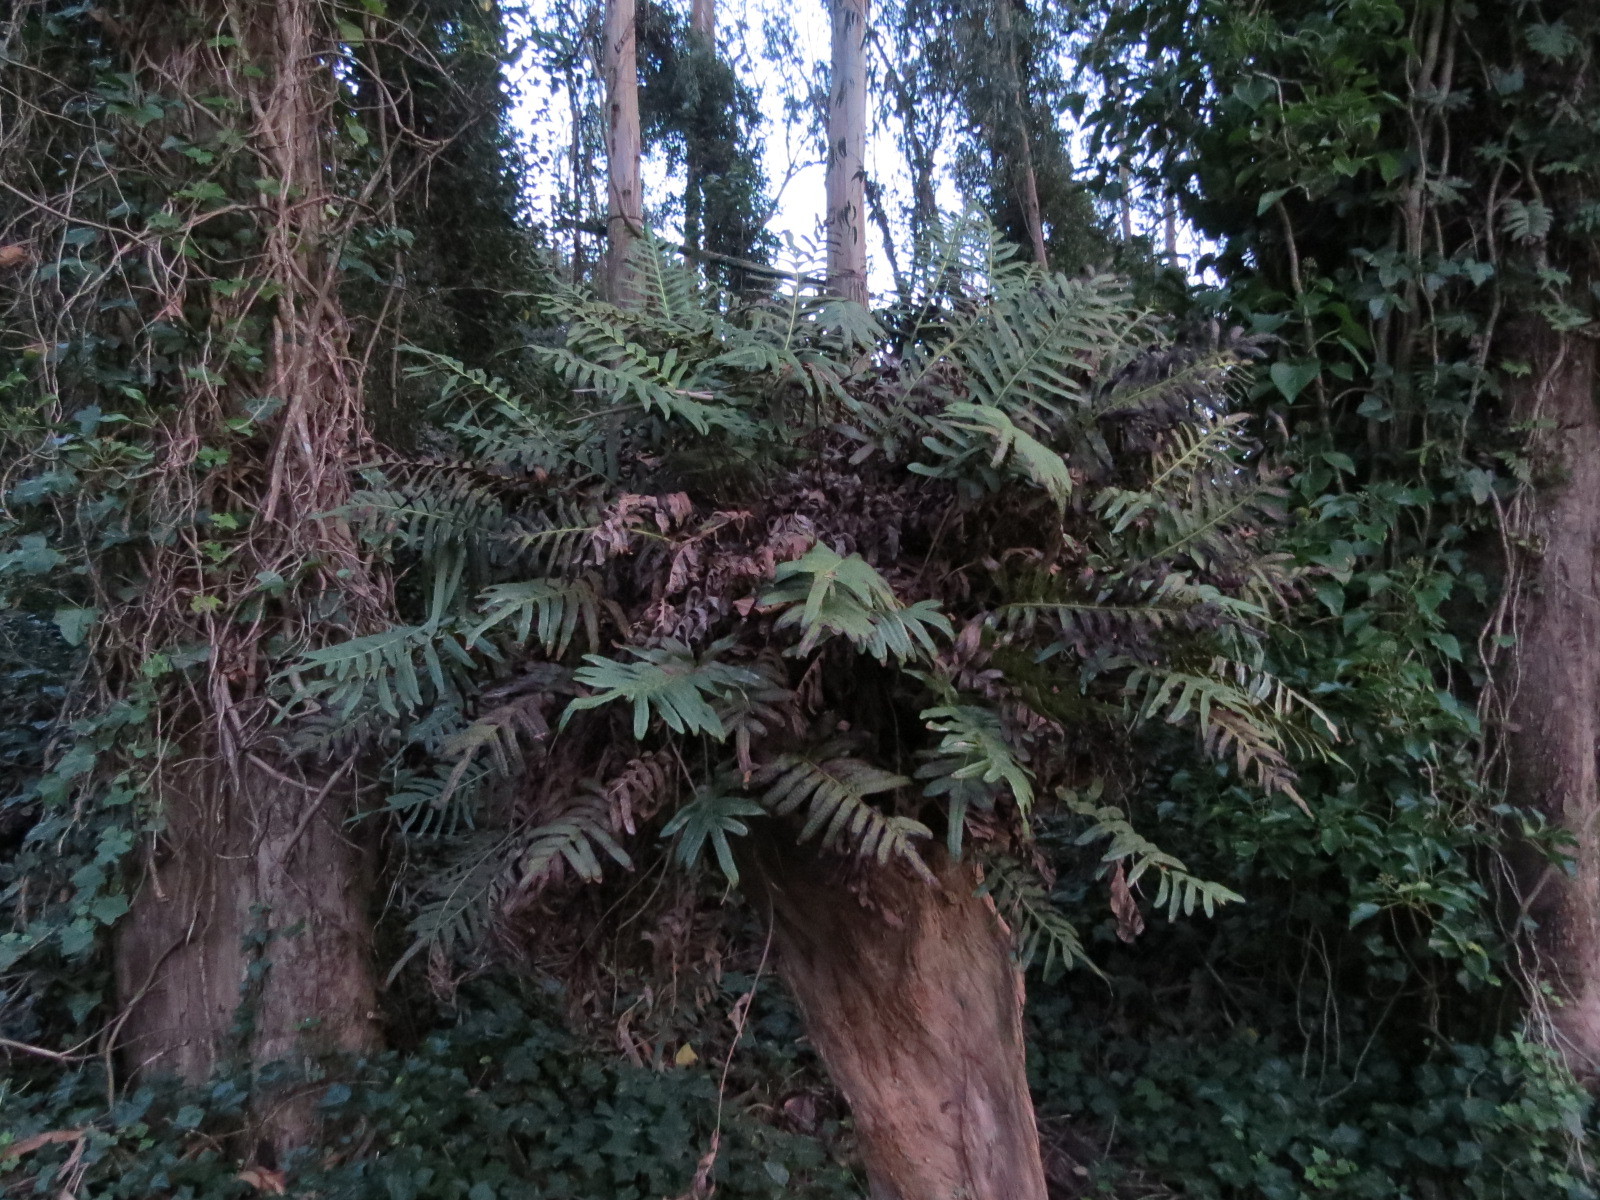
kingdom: Plantae
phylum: Tracheophyta
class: Polypodiopsida
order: Polypodiales
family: Polypodiaceae
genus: Polypodium
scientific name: Polypodium scouleri
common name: Scouler's polypody
